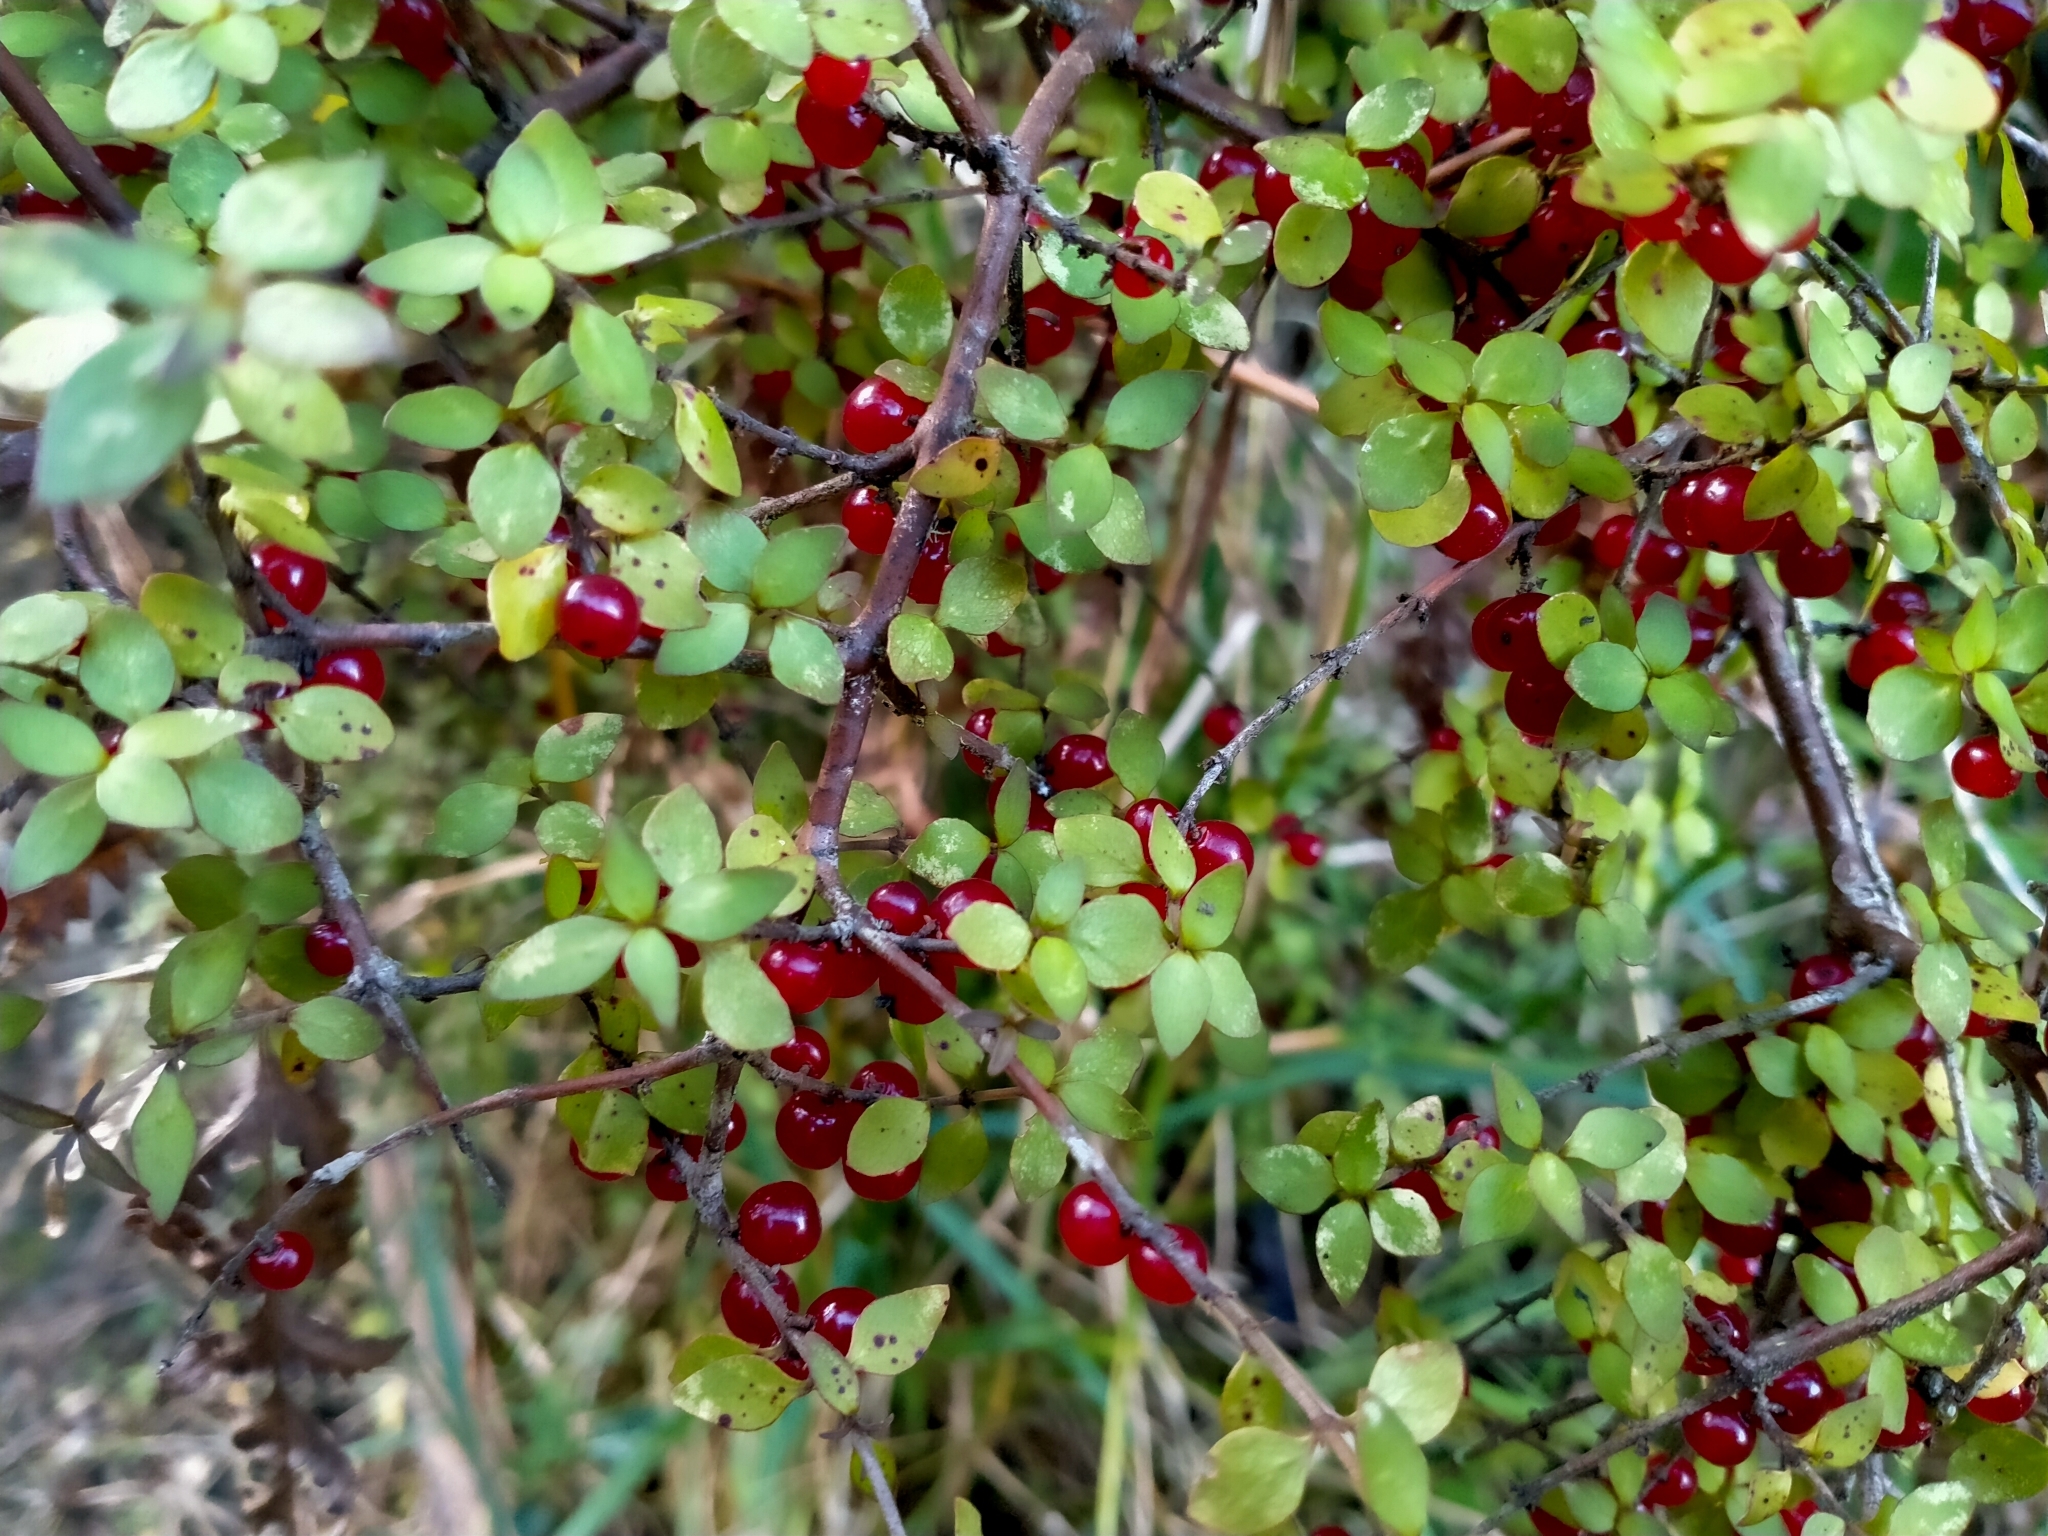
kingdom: Plantae
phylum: Tracheophyta
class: Magnoliopsida
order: Gentianales
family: Rubiaceae
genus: Coprosma
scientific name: Coprosma rhamnoides
